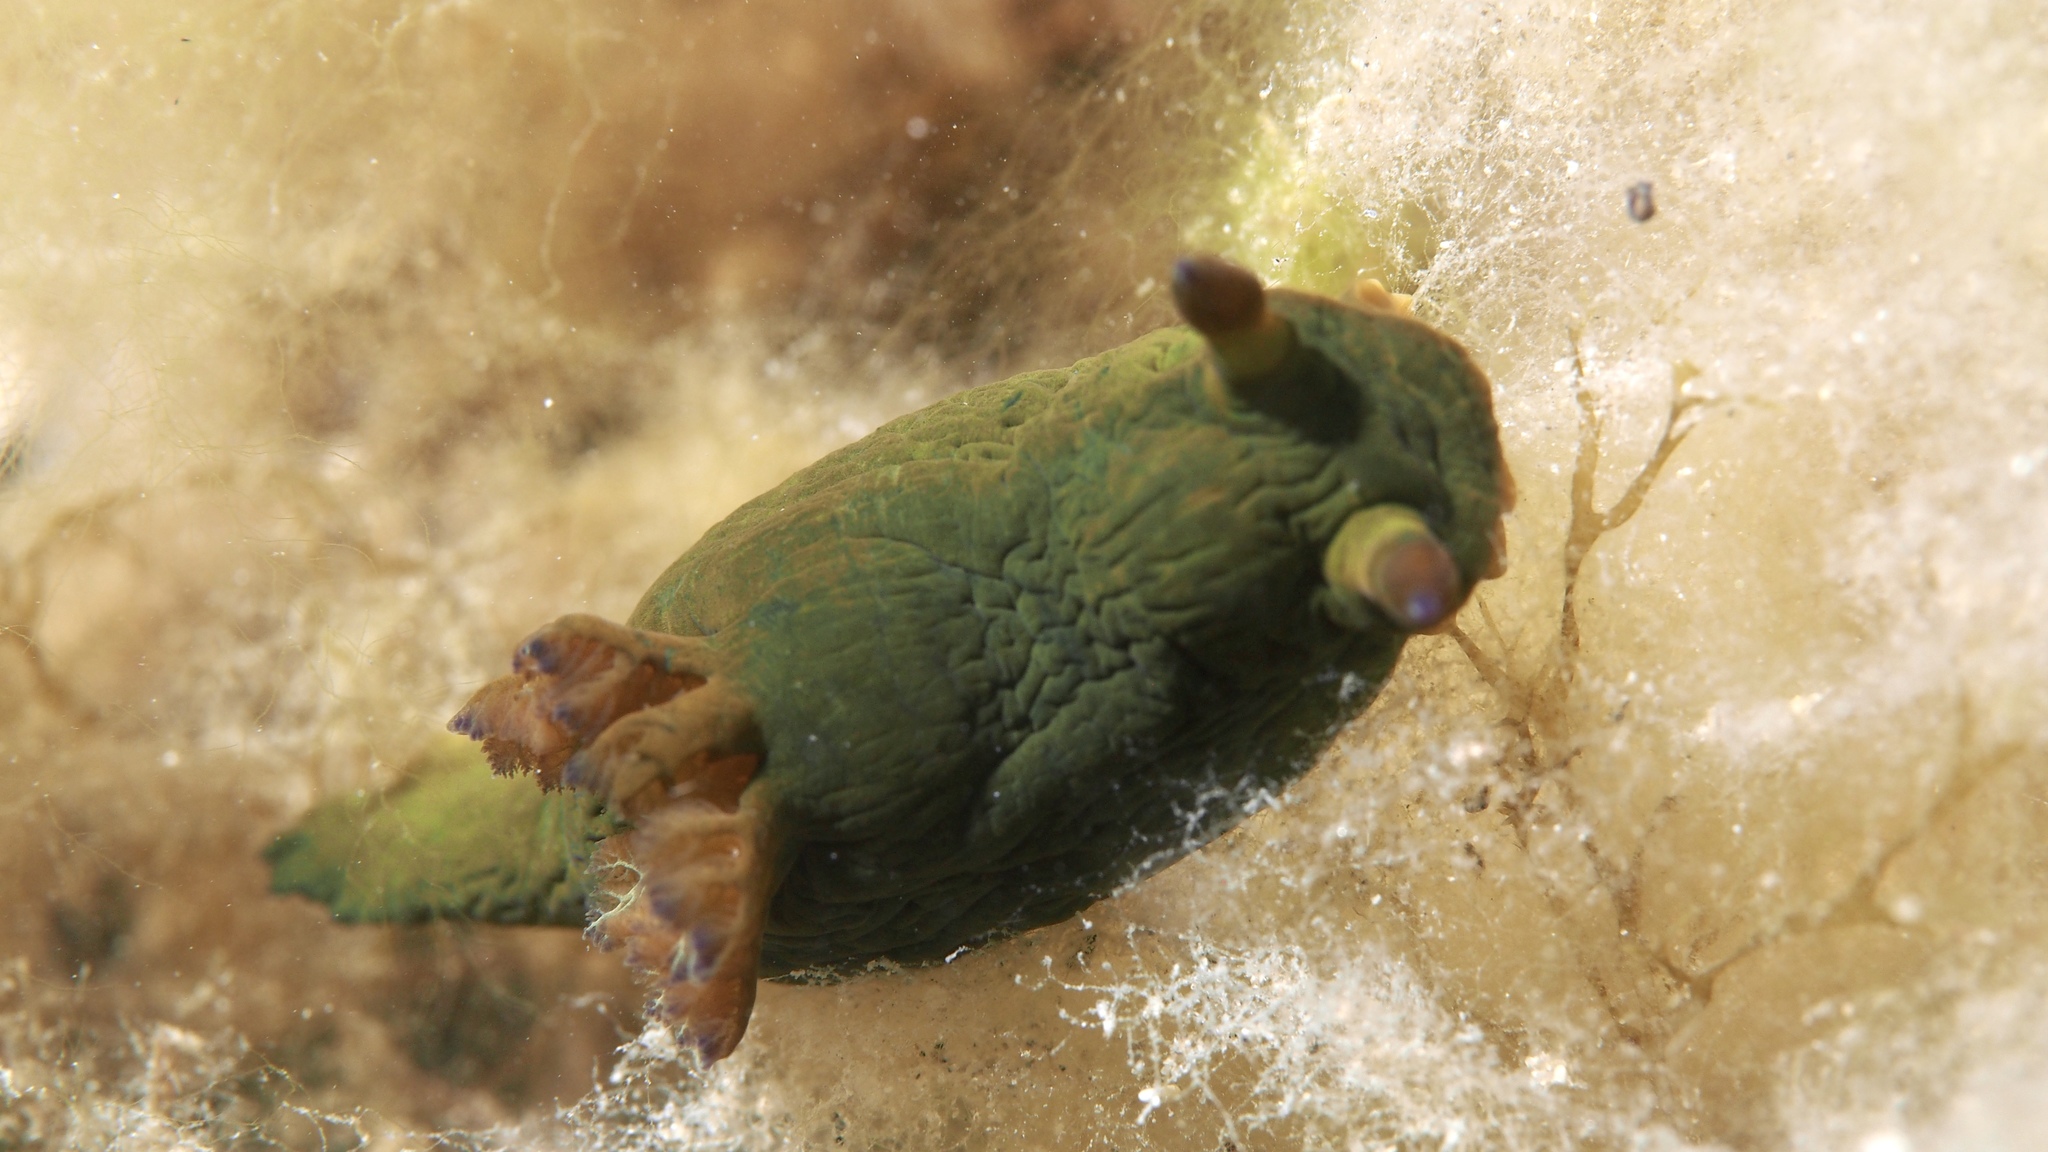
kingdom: Animalia
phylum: Mollusca
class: Gastropoda
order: Nudibranchia
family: Polyceridae
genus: Tambja
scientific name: Tambja dracomus
